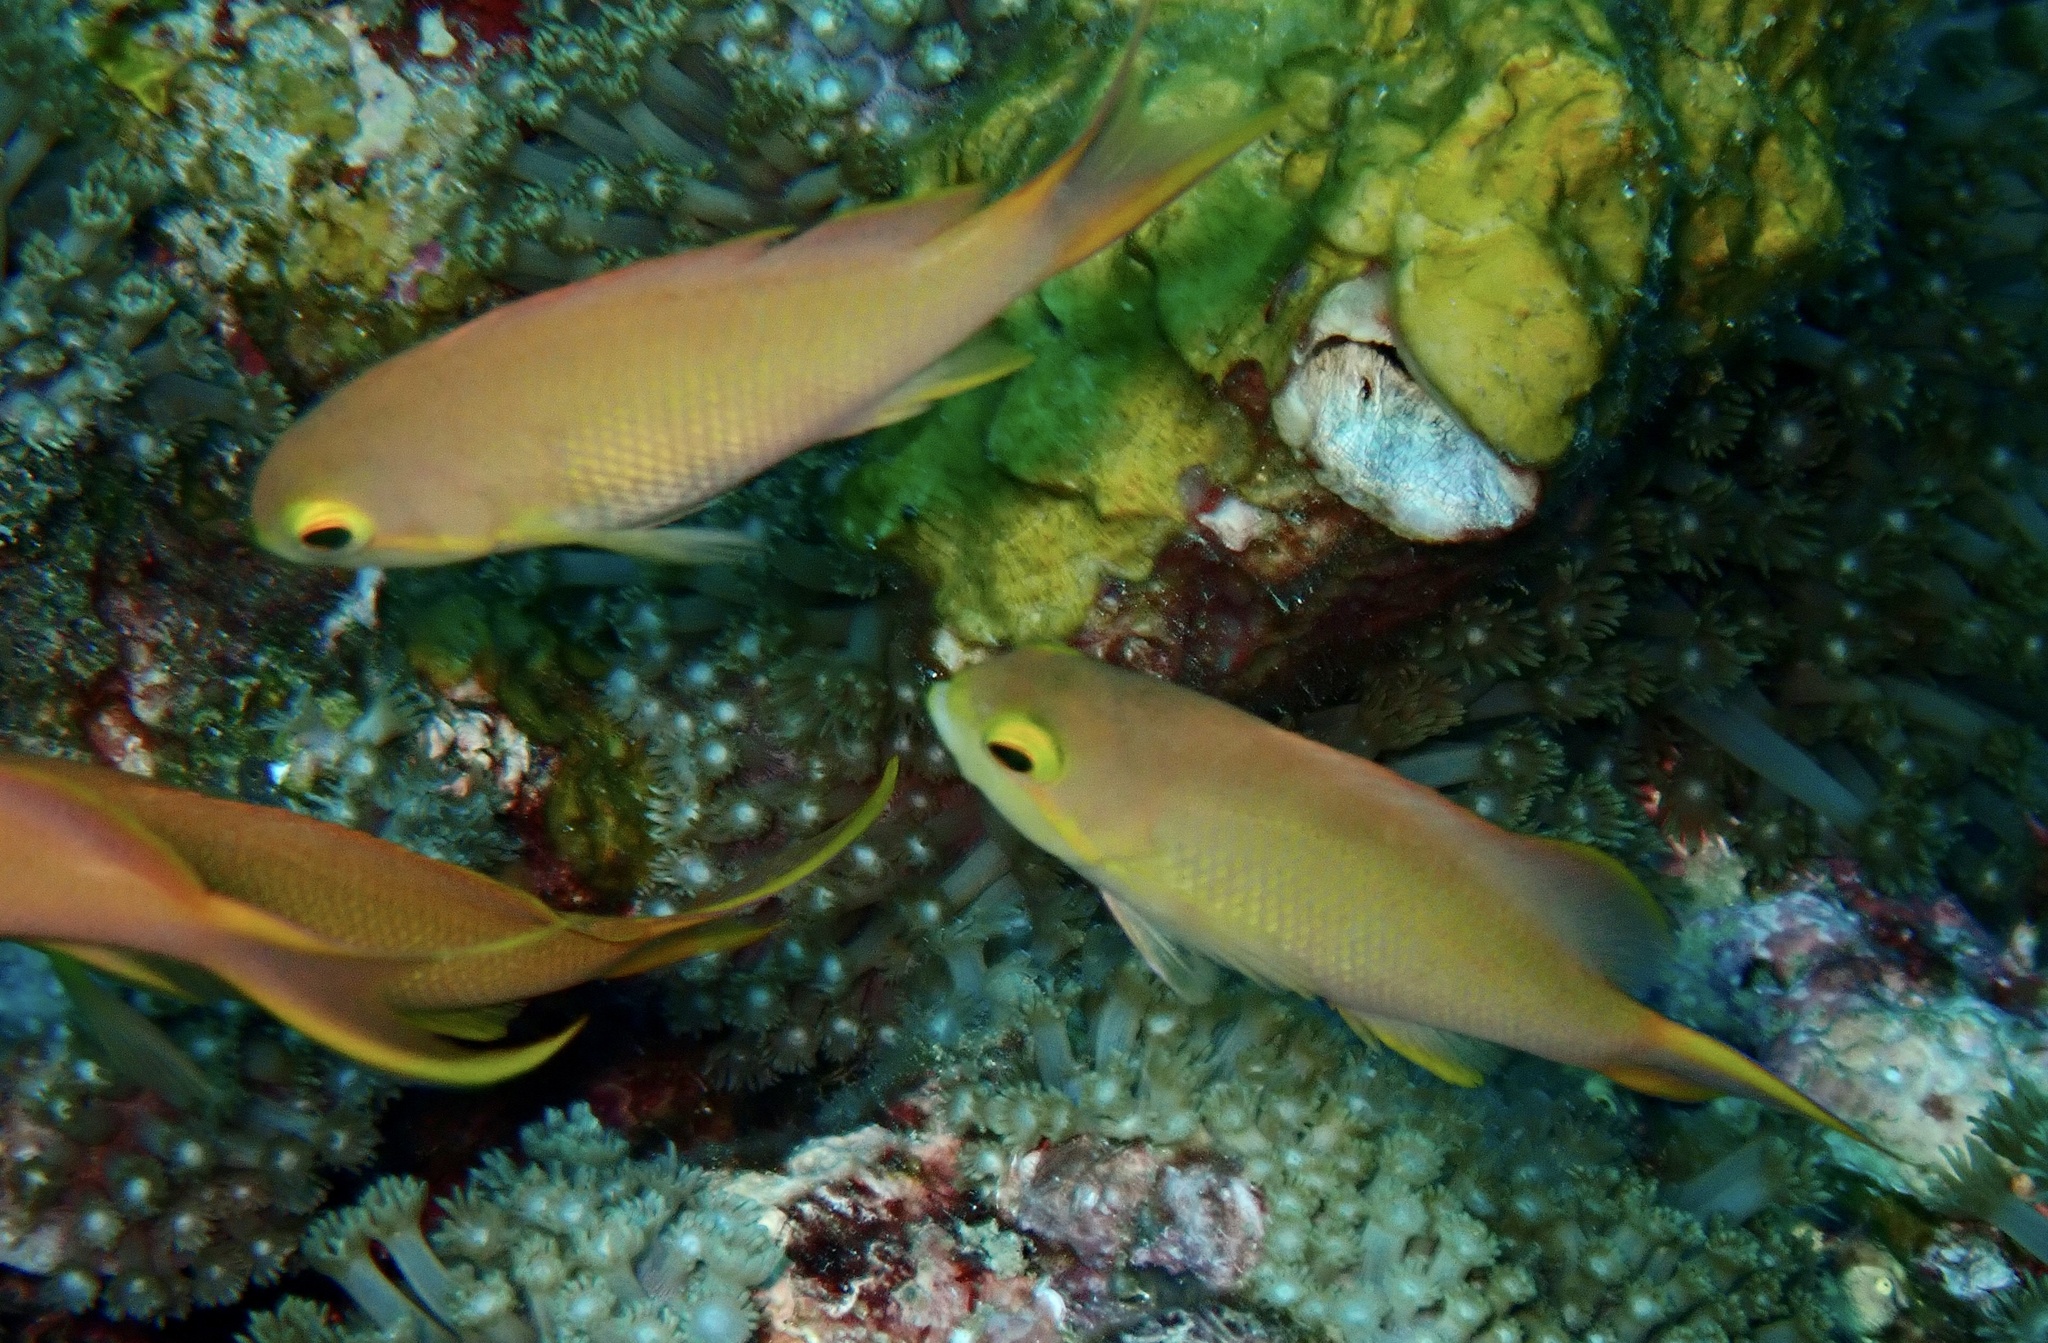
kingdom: Animalia
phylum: Chordata
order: Perciformes
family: Serranidae
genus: Pseudanthias
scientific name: Pseudanthias huchtii
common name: Pacific basslet
